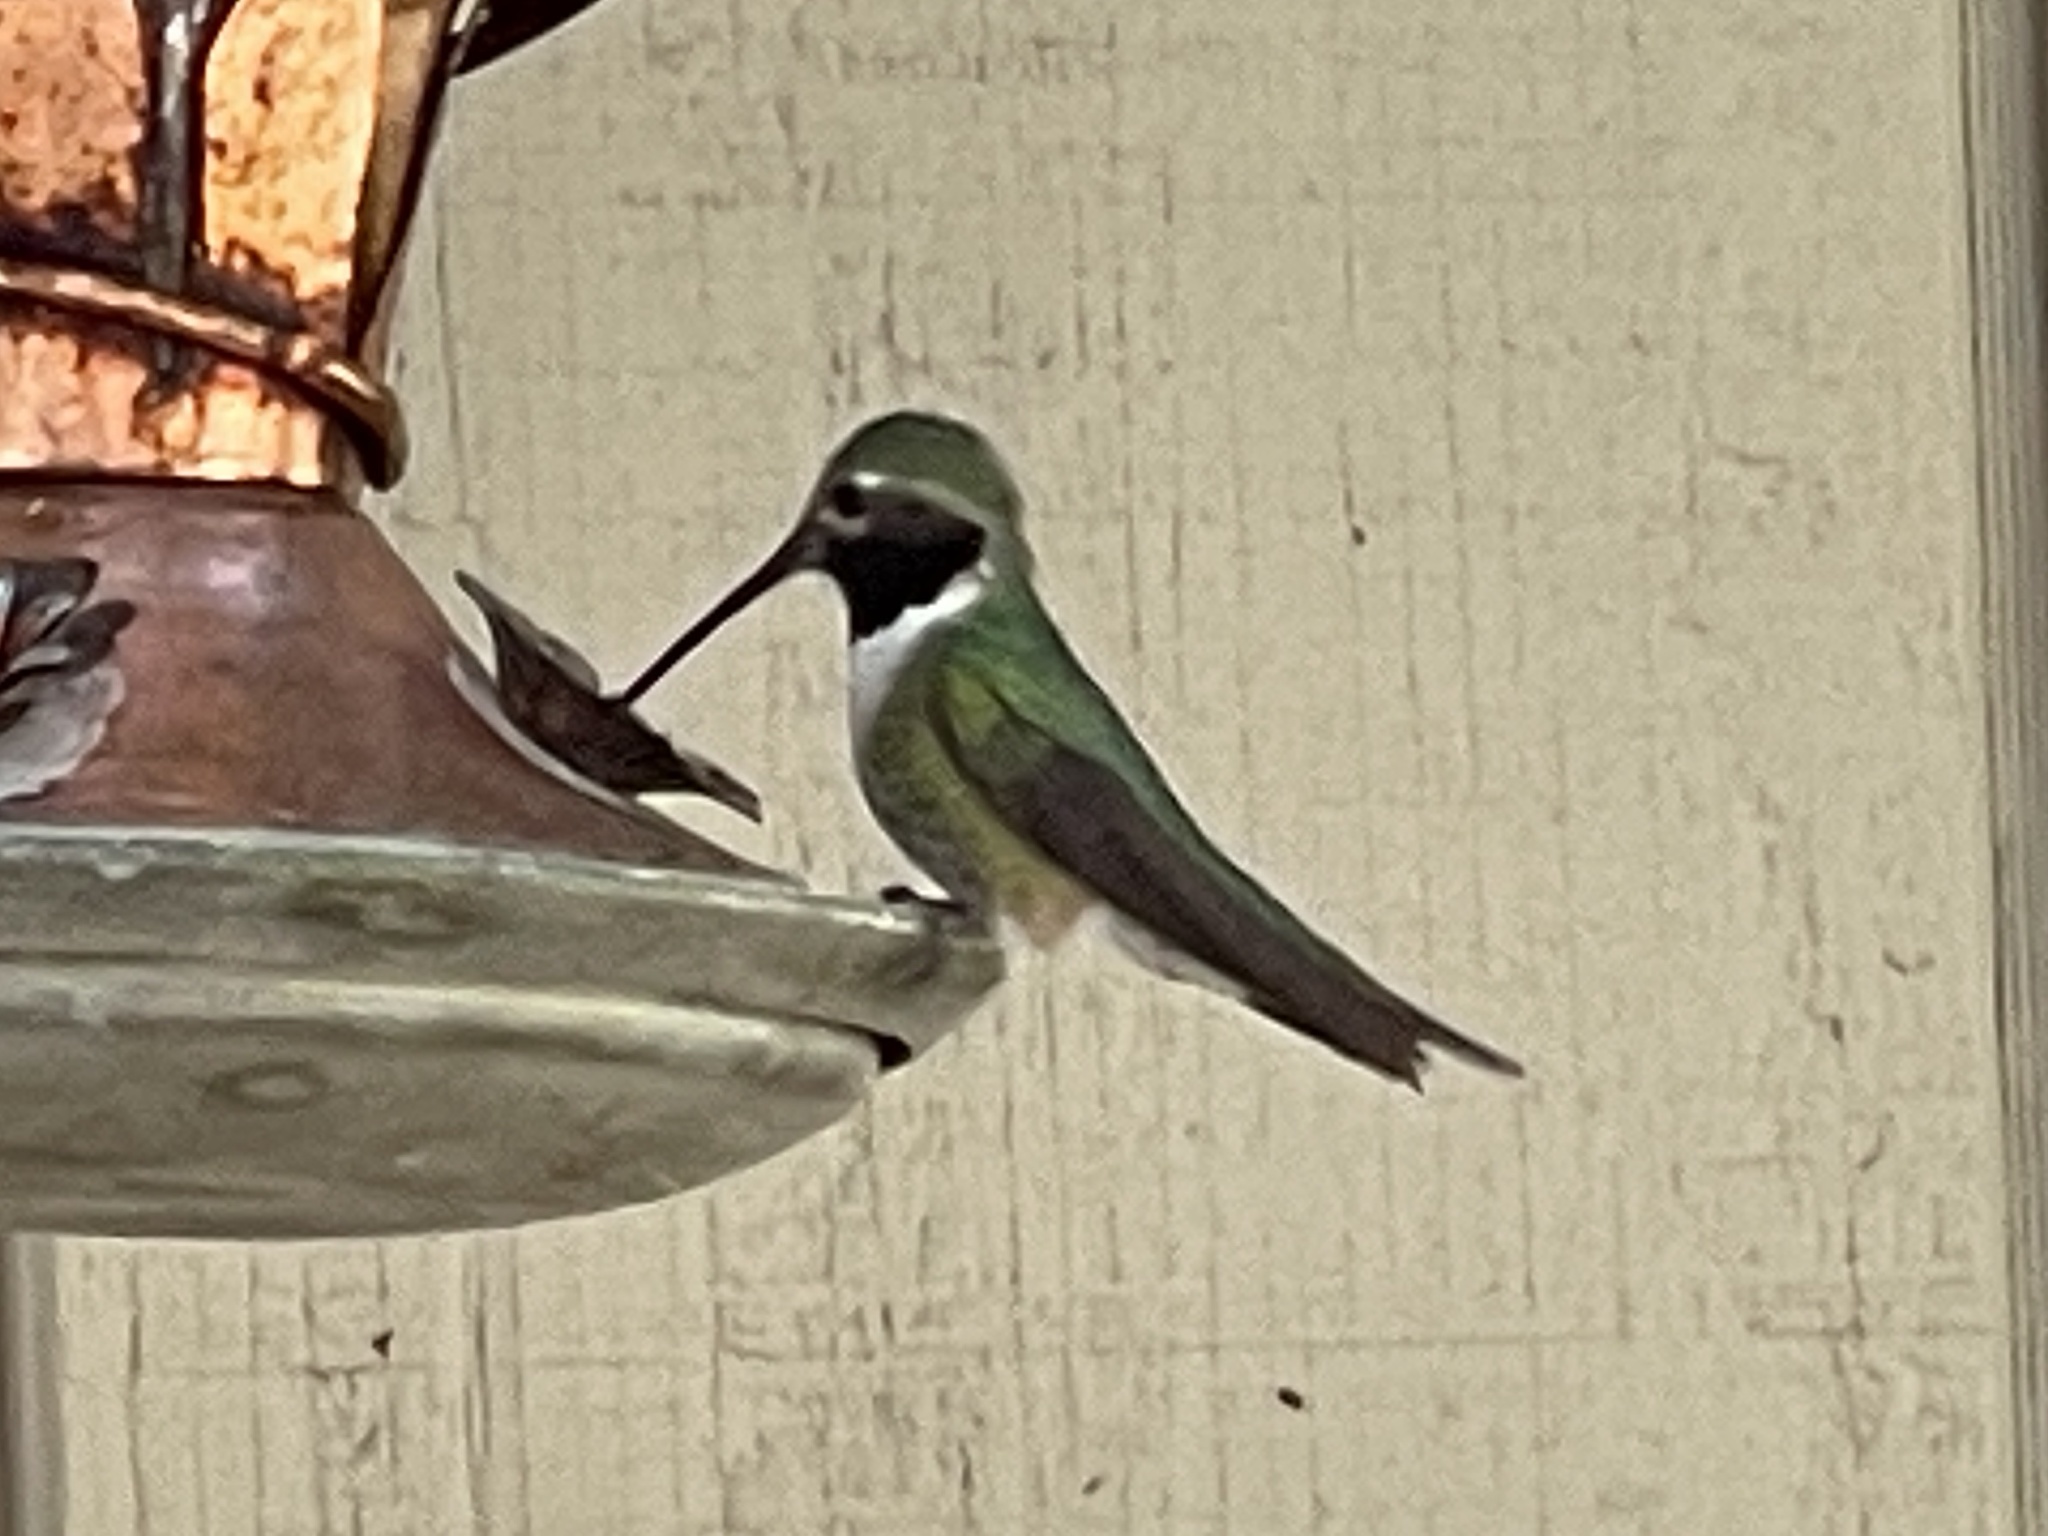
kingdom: Animalia
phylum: Chordata
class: Aves
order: Apodiformes
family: Trochilidae
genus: Selasphorus
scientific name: Selasphorus platycercus
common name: Broad-tailed hummingbird
